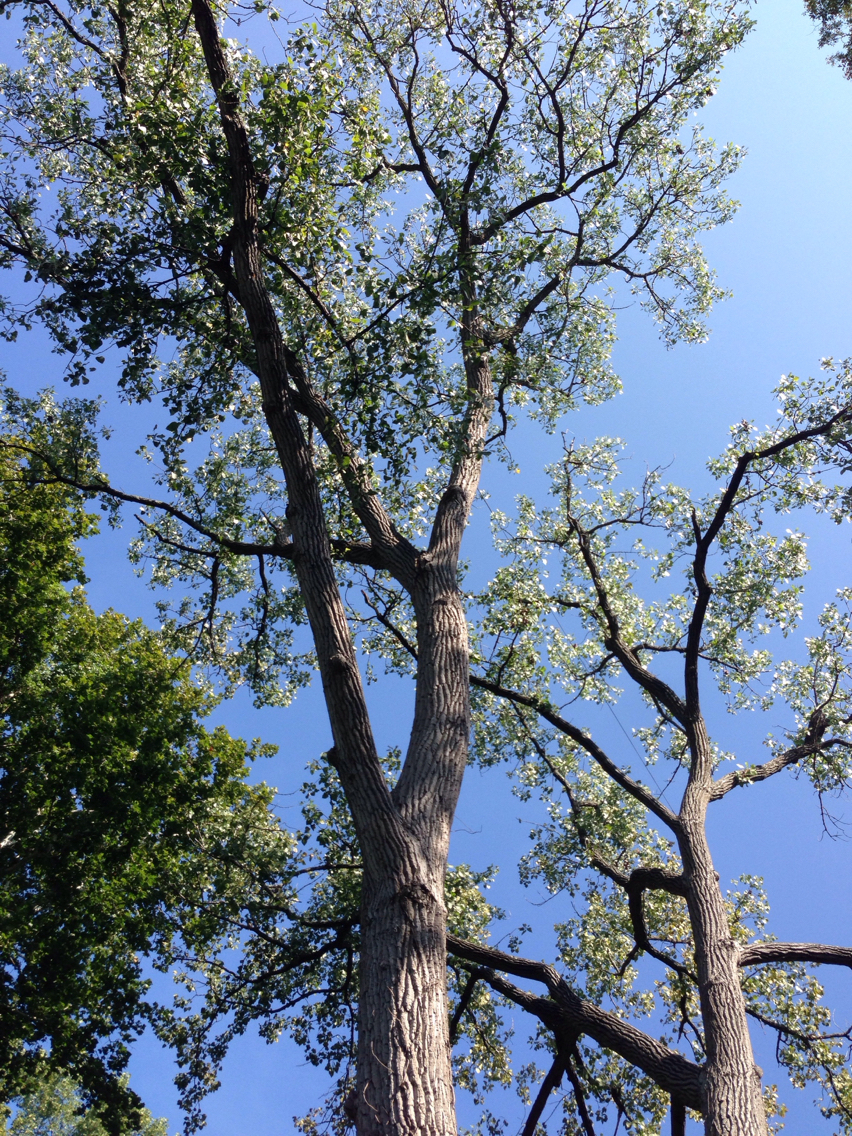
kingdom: Plantae
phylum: Tracheophyta
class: Magnoliopsida
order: Malpighiales
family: Salicaceae
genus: Populus
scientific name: Populus deltoides
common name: Eastern cottonwood
